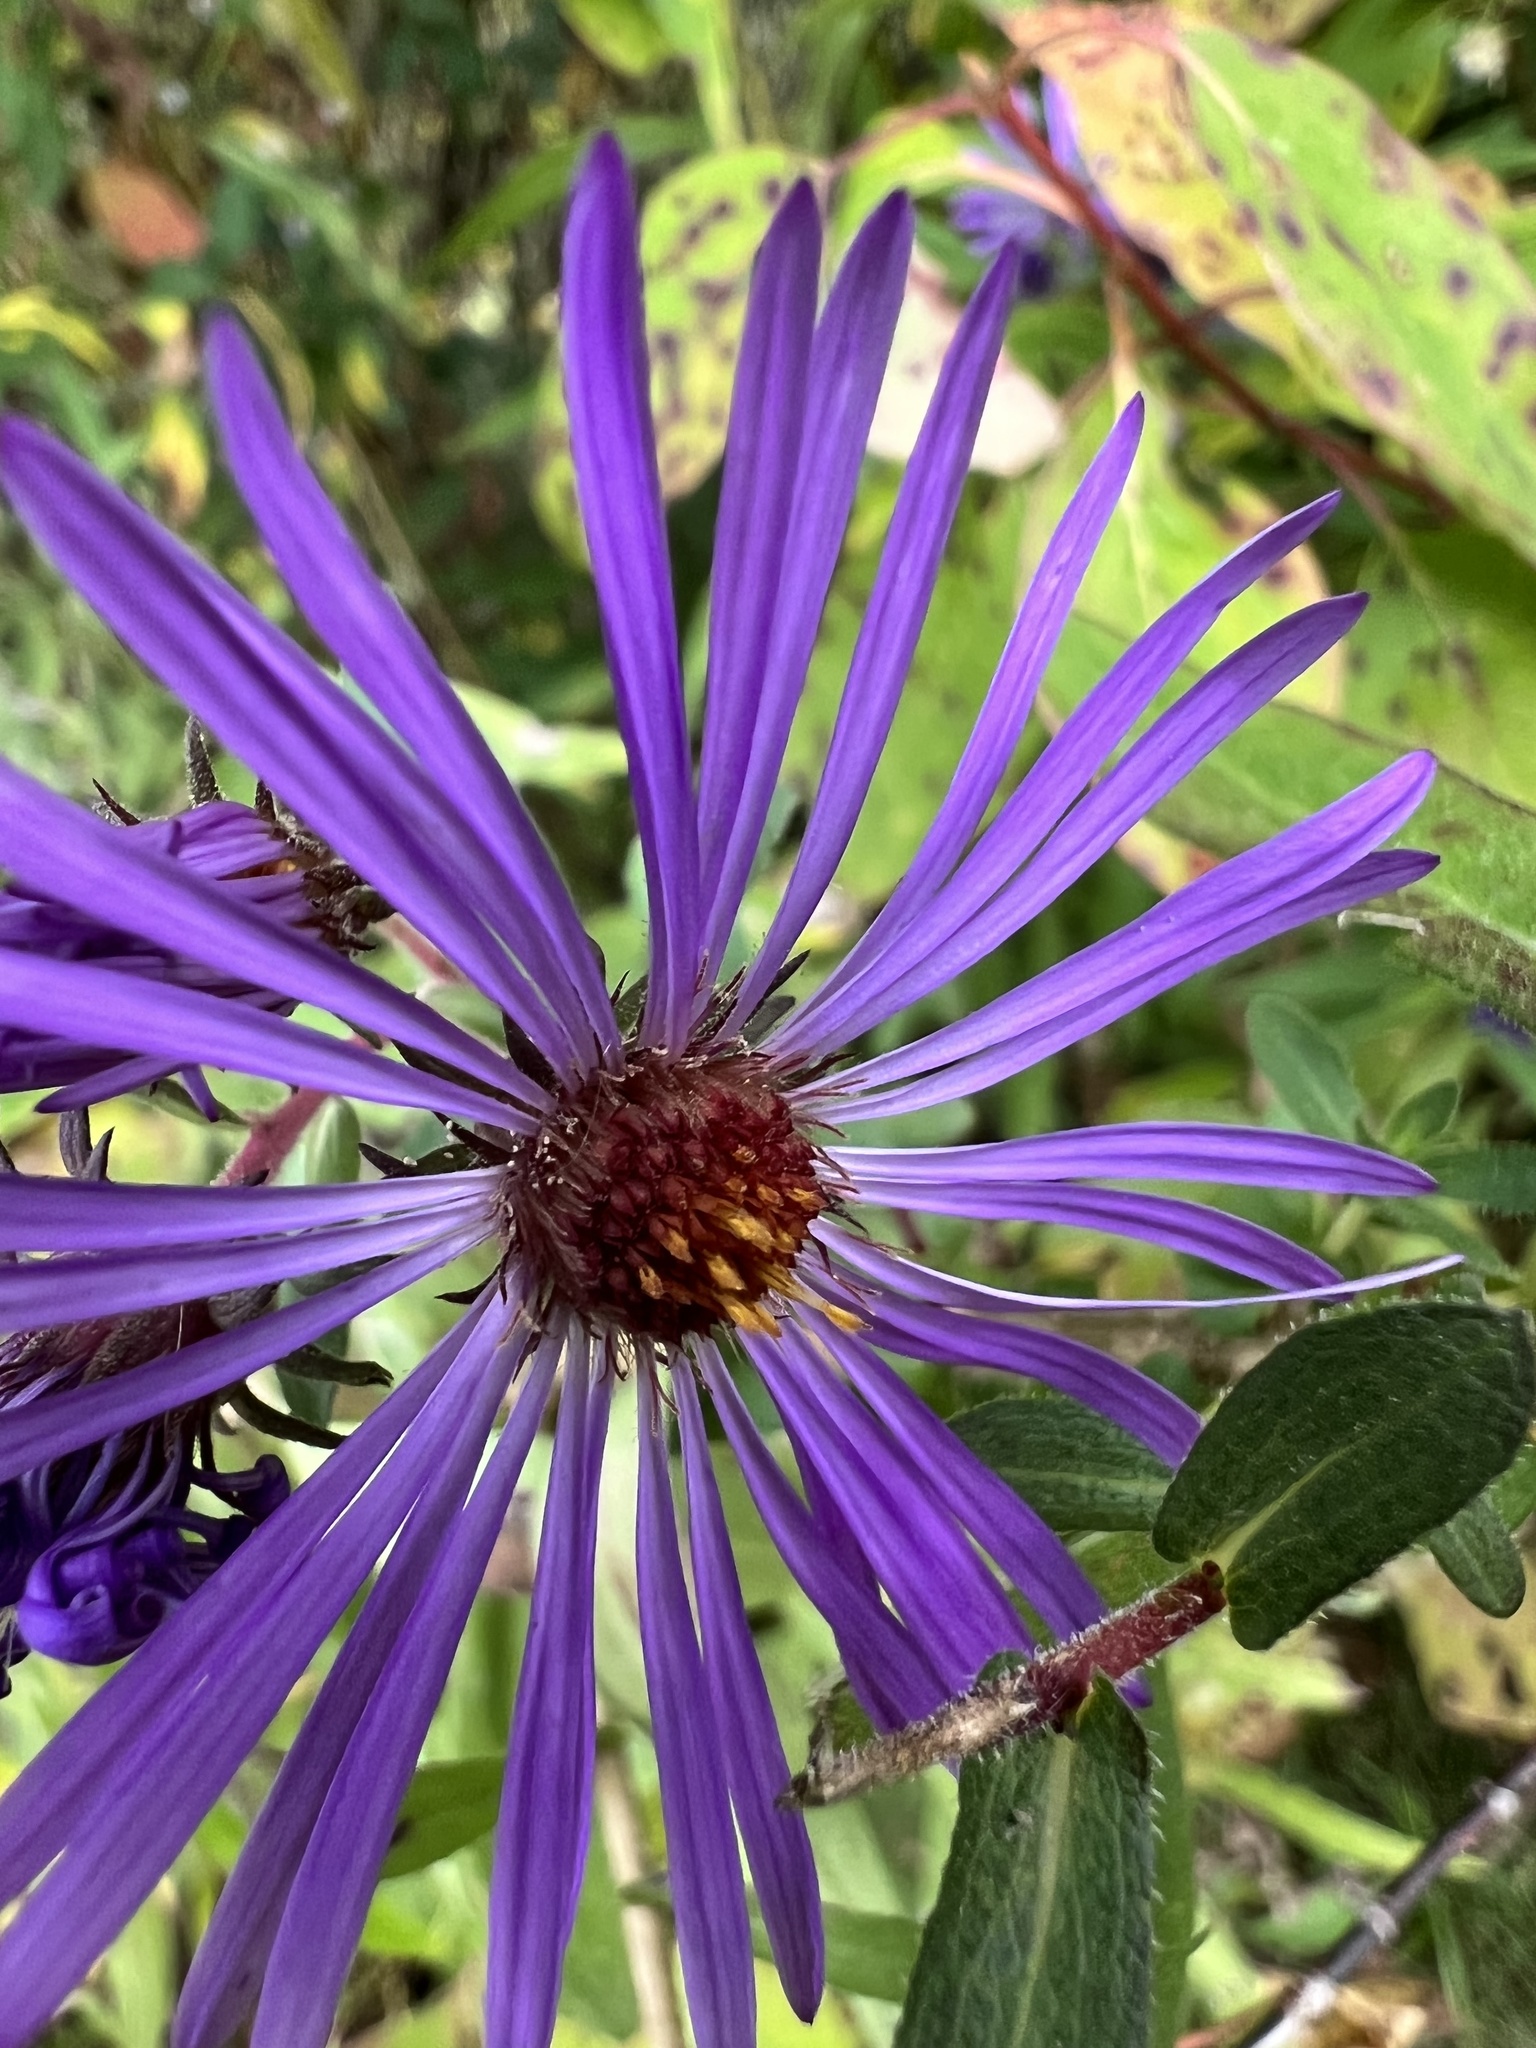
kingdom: Plantae
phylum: Tracheophyta
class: Magnoliopsida
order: Asterales
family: Asteraceae
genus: Symphyotrichum
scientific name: Symphyotrichum novae-angliae
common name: Michaelmas daisy
